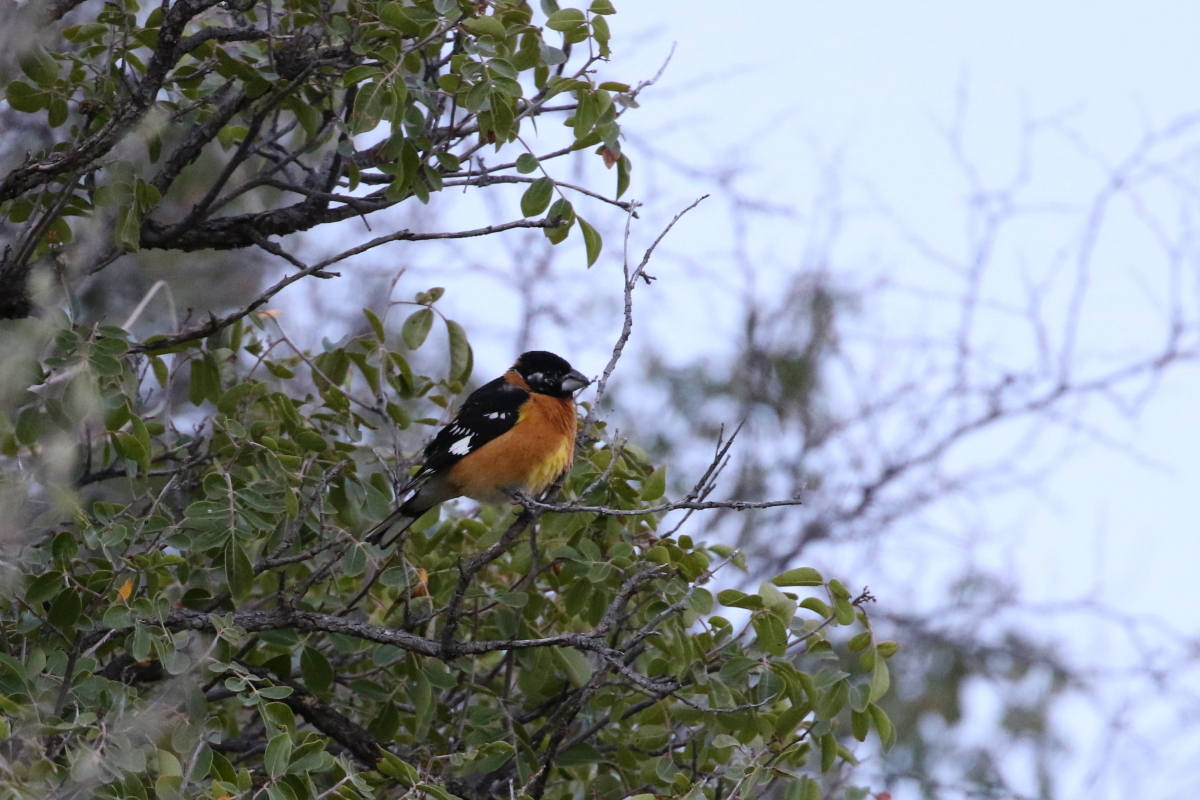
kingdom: Animalia
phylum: Chordata
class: Aves
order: Passeriformes
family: Cardinalidae
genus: Pheucticus
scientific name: Pheucticus melanocephalus
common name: Black-headed grosbeak
